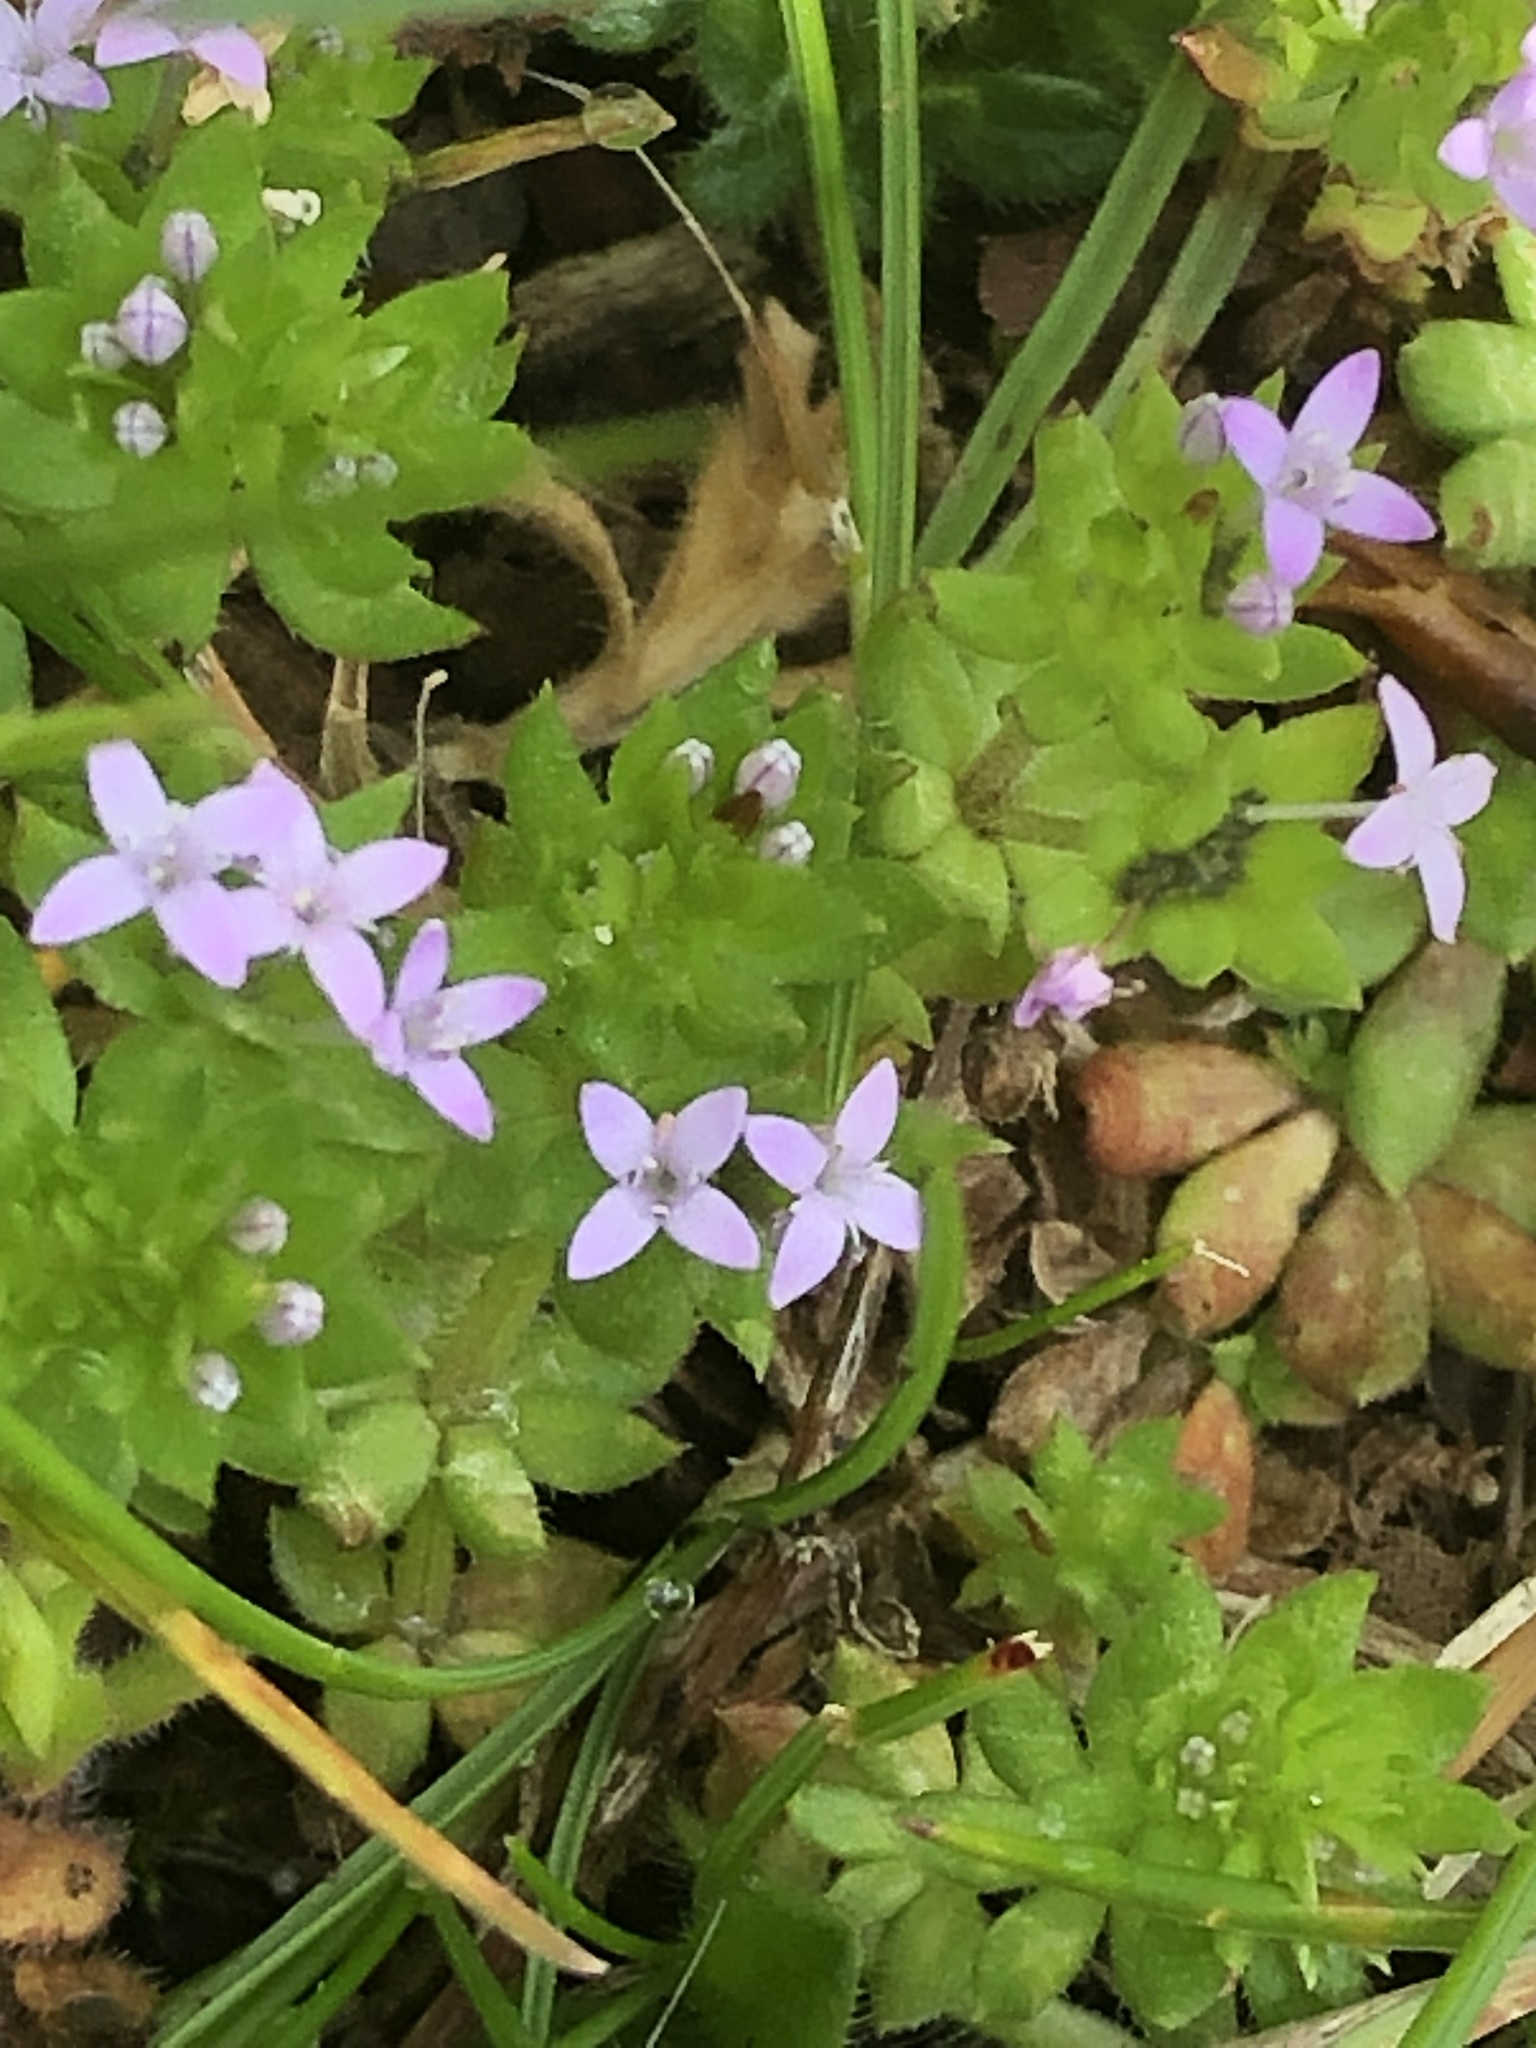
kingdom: Plantae
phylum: Tracheophyta
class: Magnoliopsida
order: Gentianales
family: Rubiaceae
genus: Sherardia
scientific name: Sherardia arvensis
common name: Field madder
